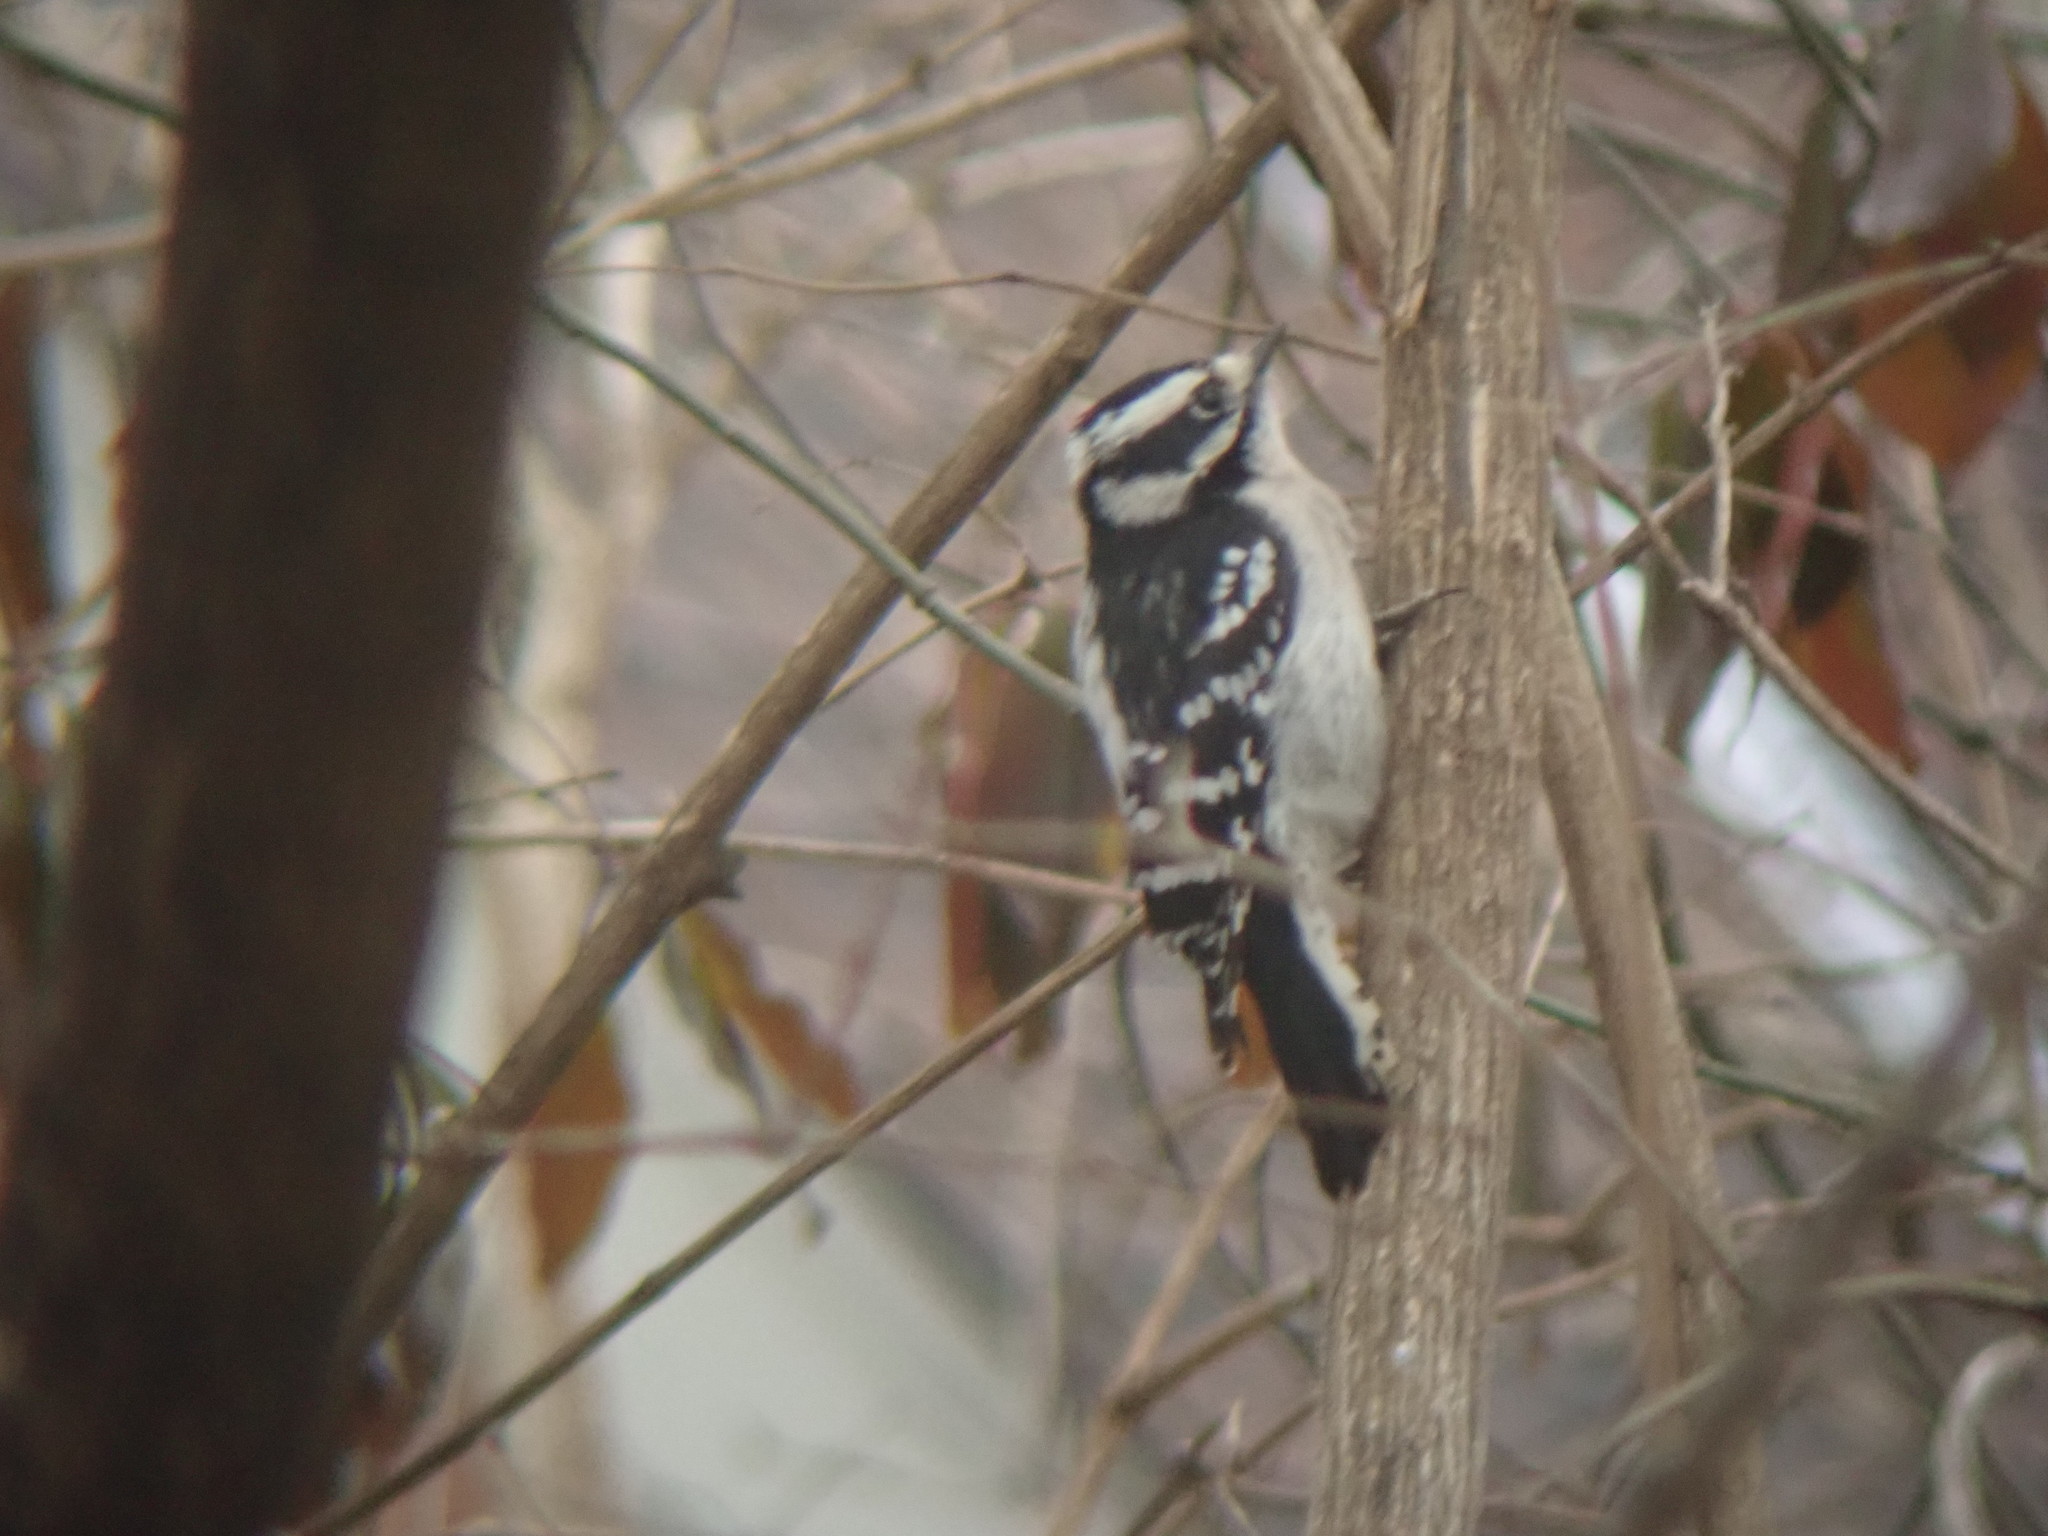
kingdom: Animalia
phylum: Chordata
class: Aves
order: Piciformes
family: Picidae
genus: Dryobates
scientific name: Dryobates pubescens
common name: Downy woodpecker
